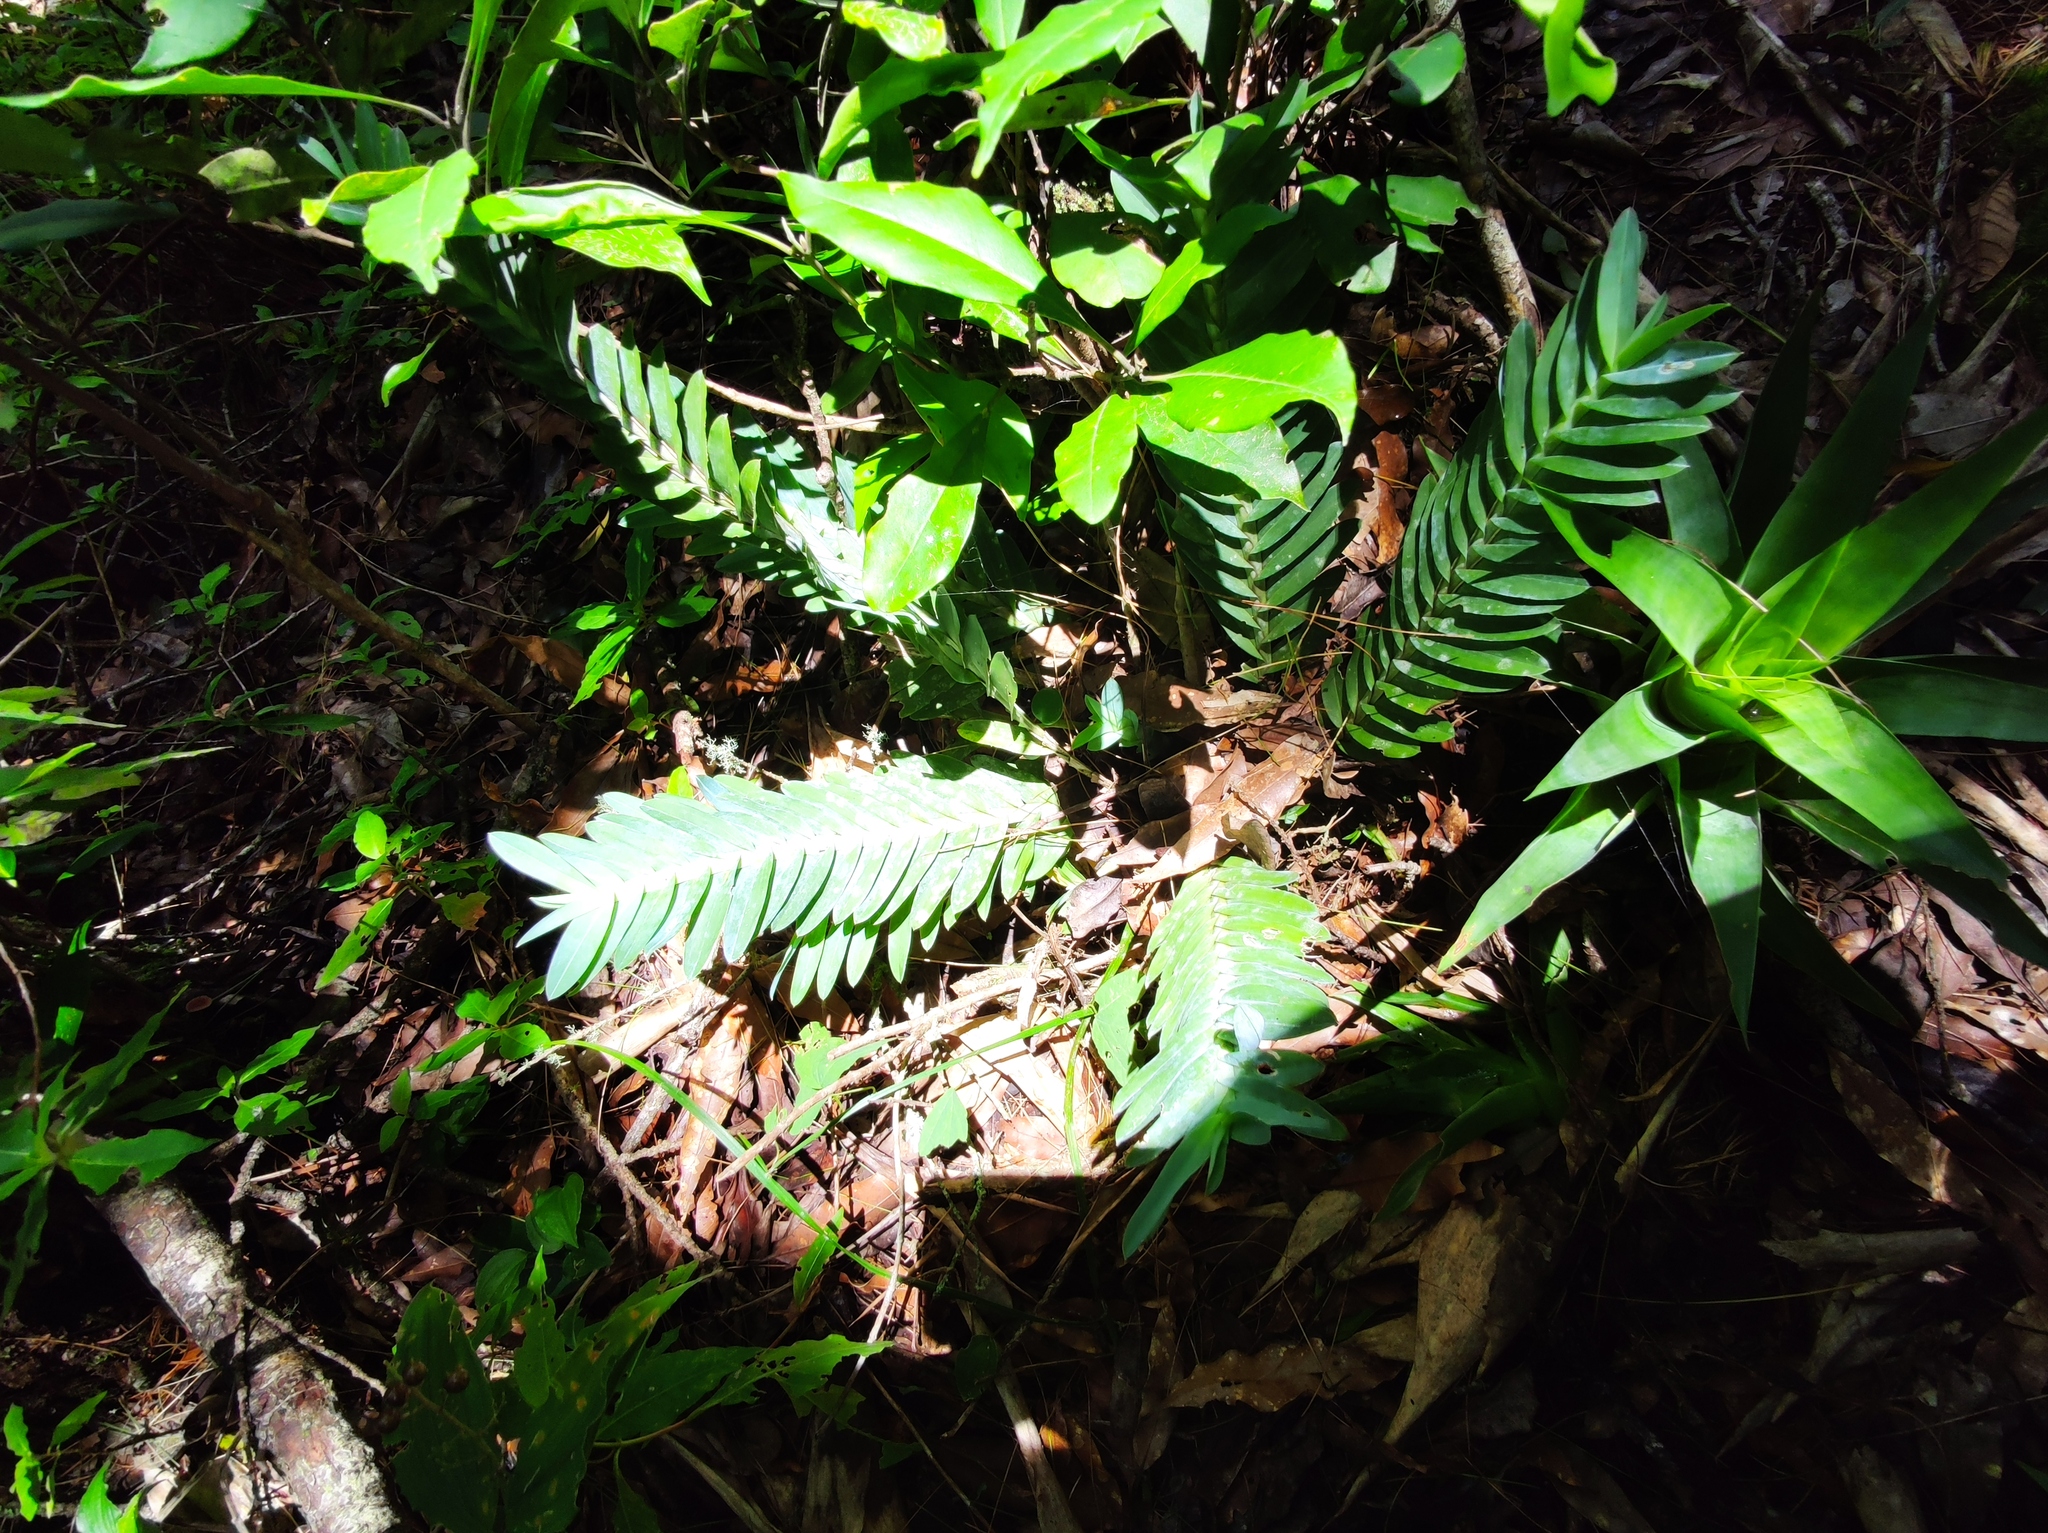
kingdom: Plantae
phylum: Tracheophyta
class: Liliopsida
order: Asparagales
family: Orchidaceae
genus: Dichaea
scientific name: Dichaea glauca
